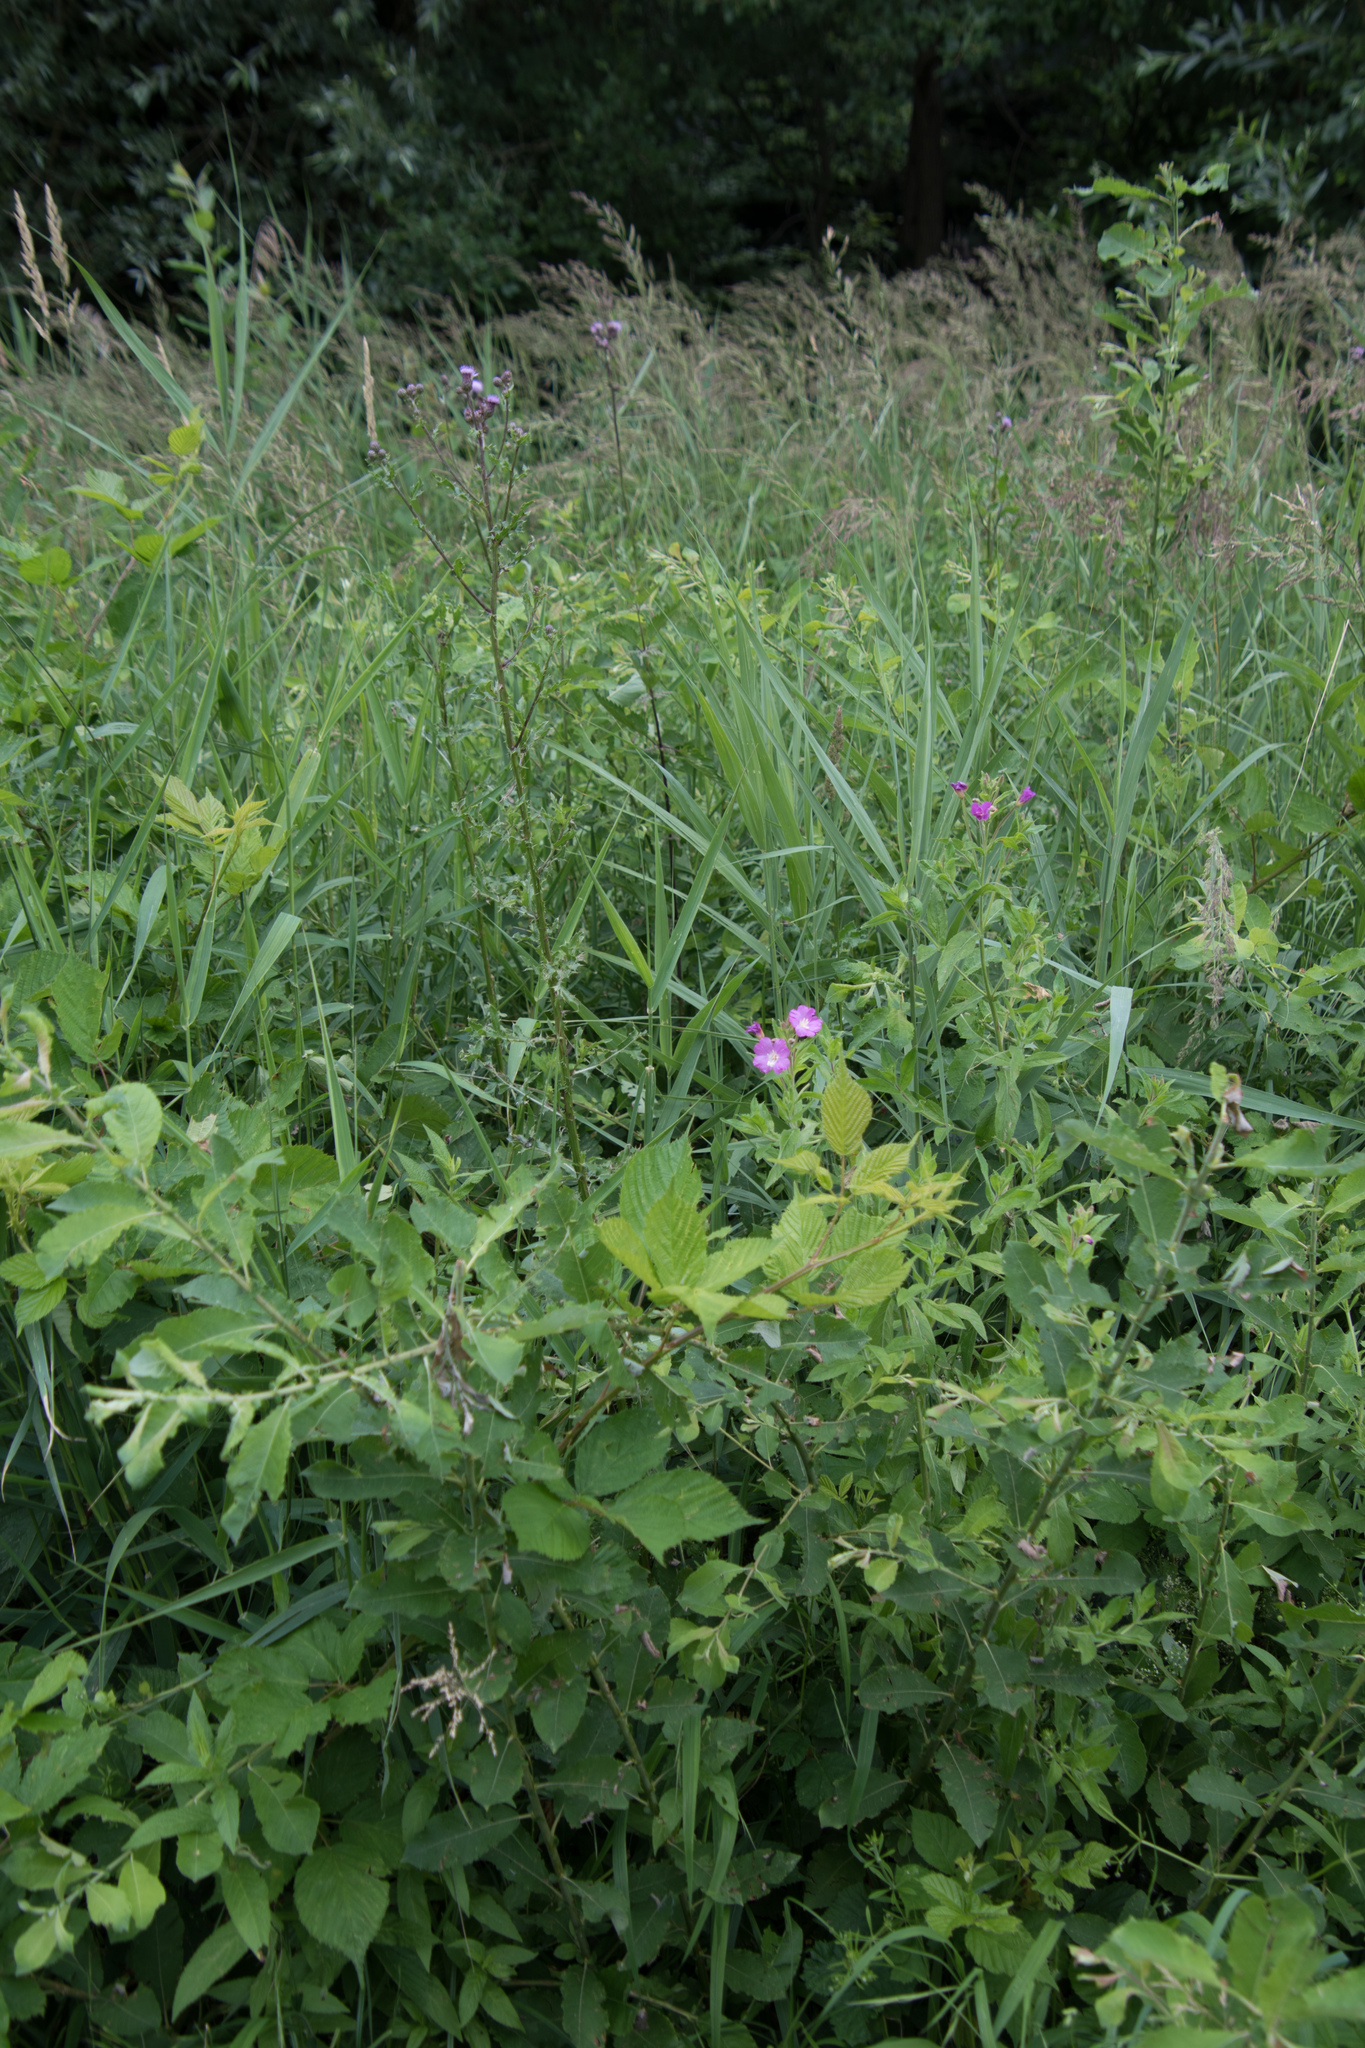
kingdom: Plantae
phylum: Tracheophyta
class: Magnoliopsida
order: Myrtales
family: Onagraceae
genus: Epilobium
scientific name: Epilobium hirsutum
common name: Great willowherb
